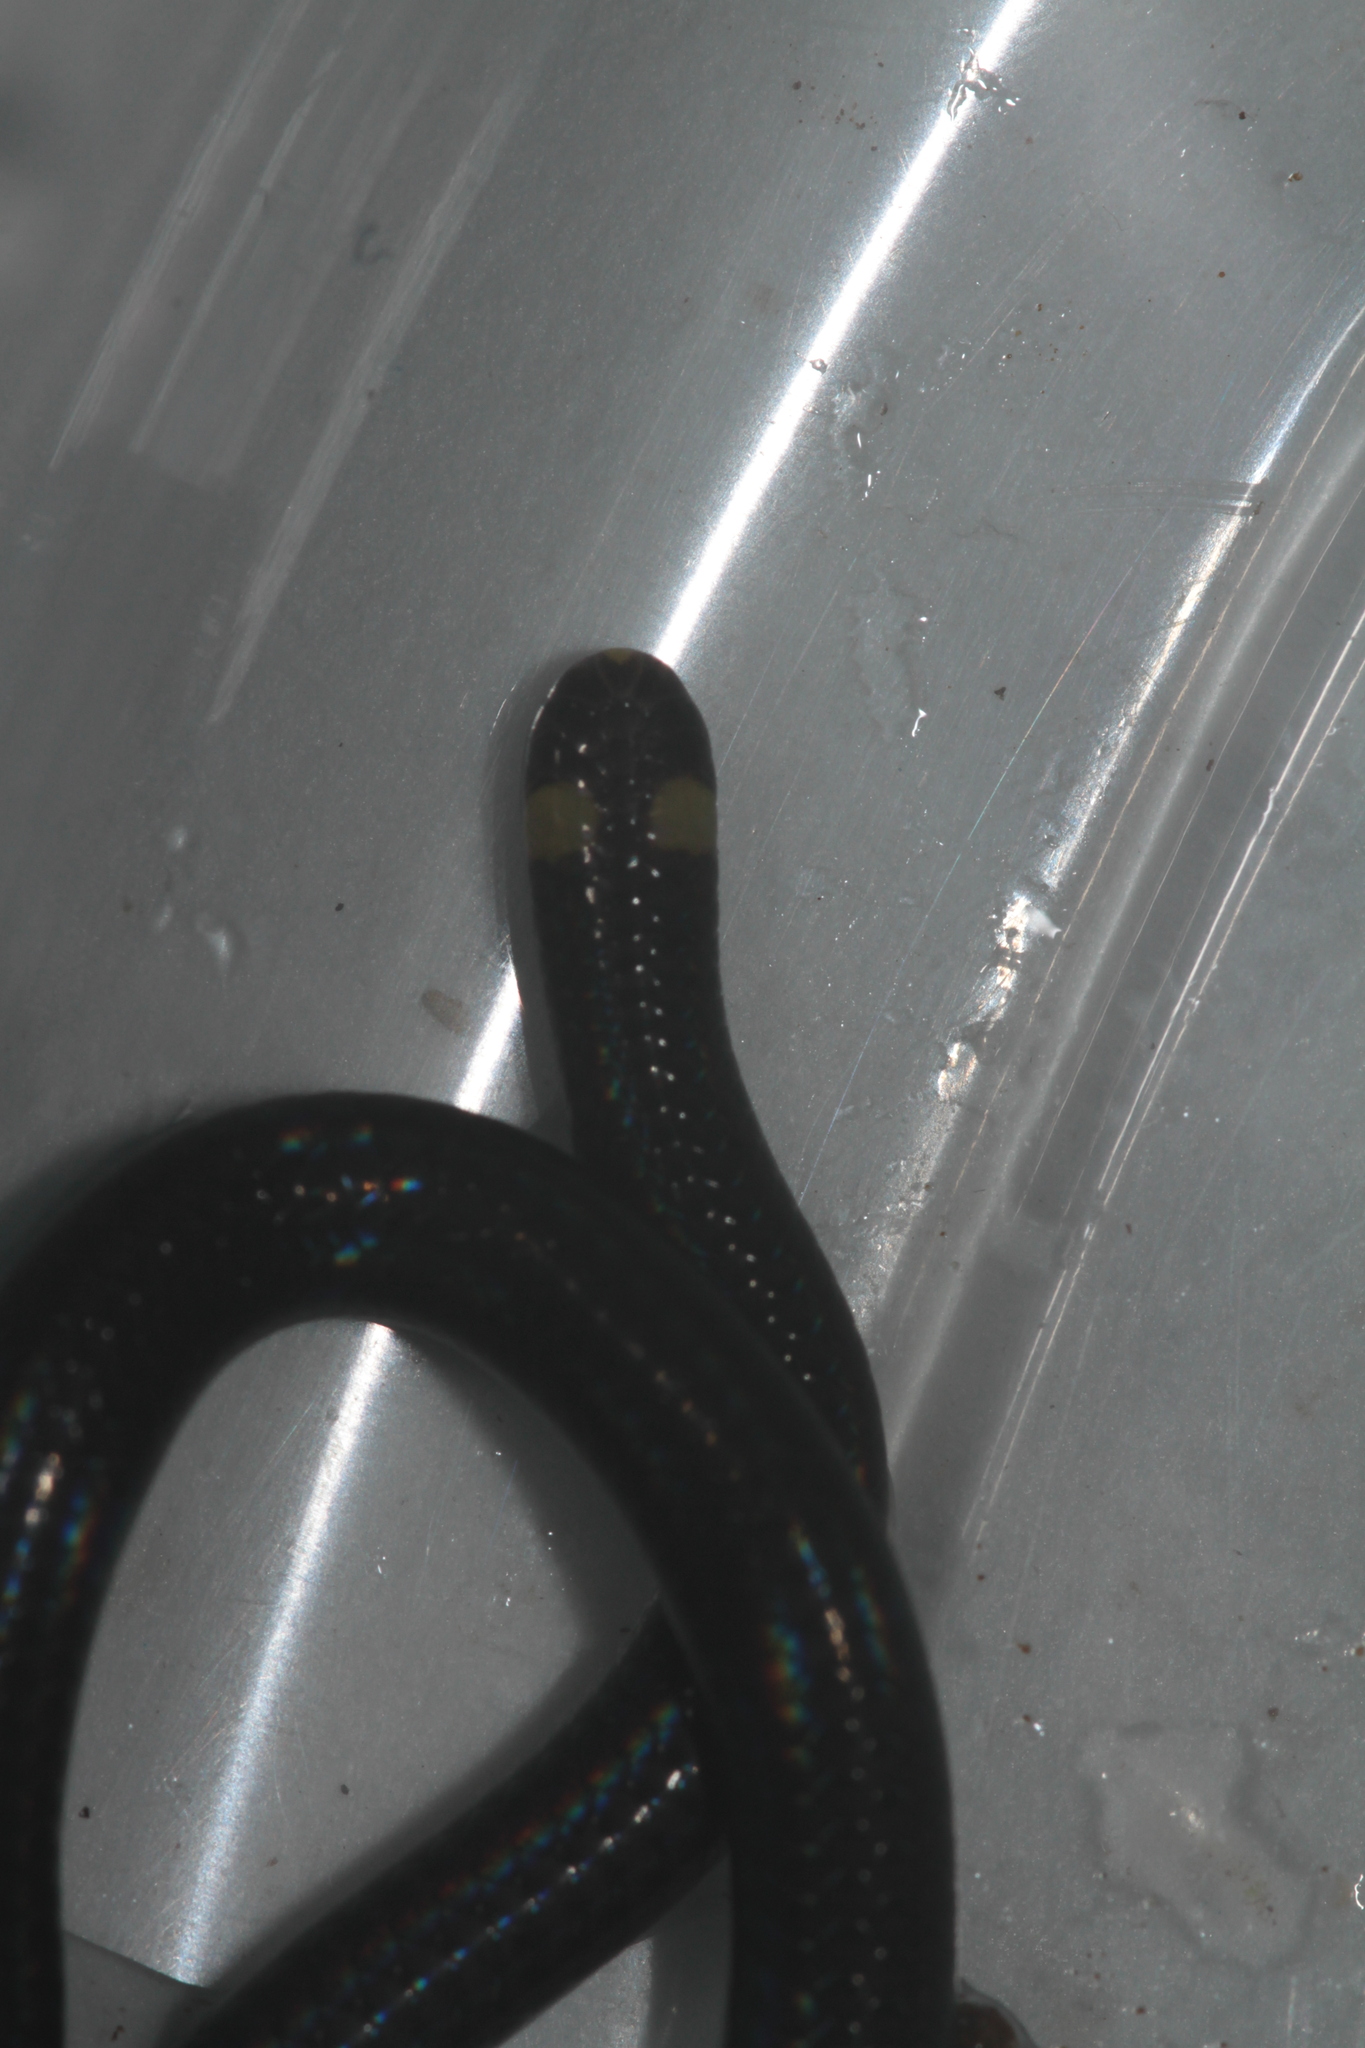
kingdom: Animalia
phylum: Chordata
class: Squamata
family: Leptotyphlopidae
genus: Habrophallos
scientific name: Habrophallos collaris
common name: Collared blind snake
